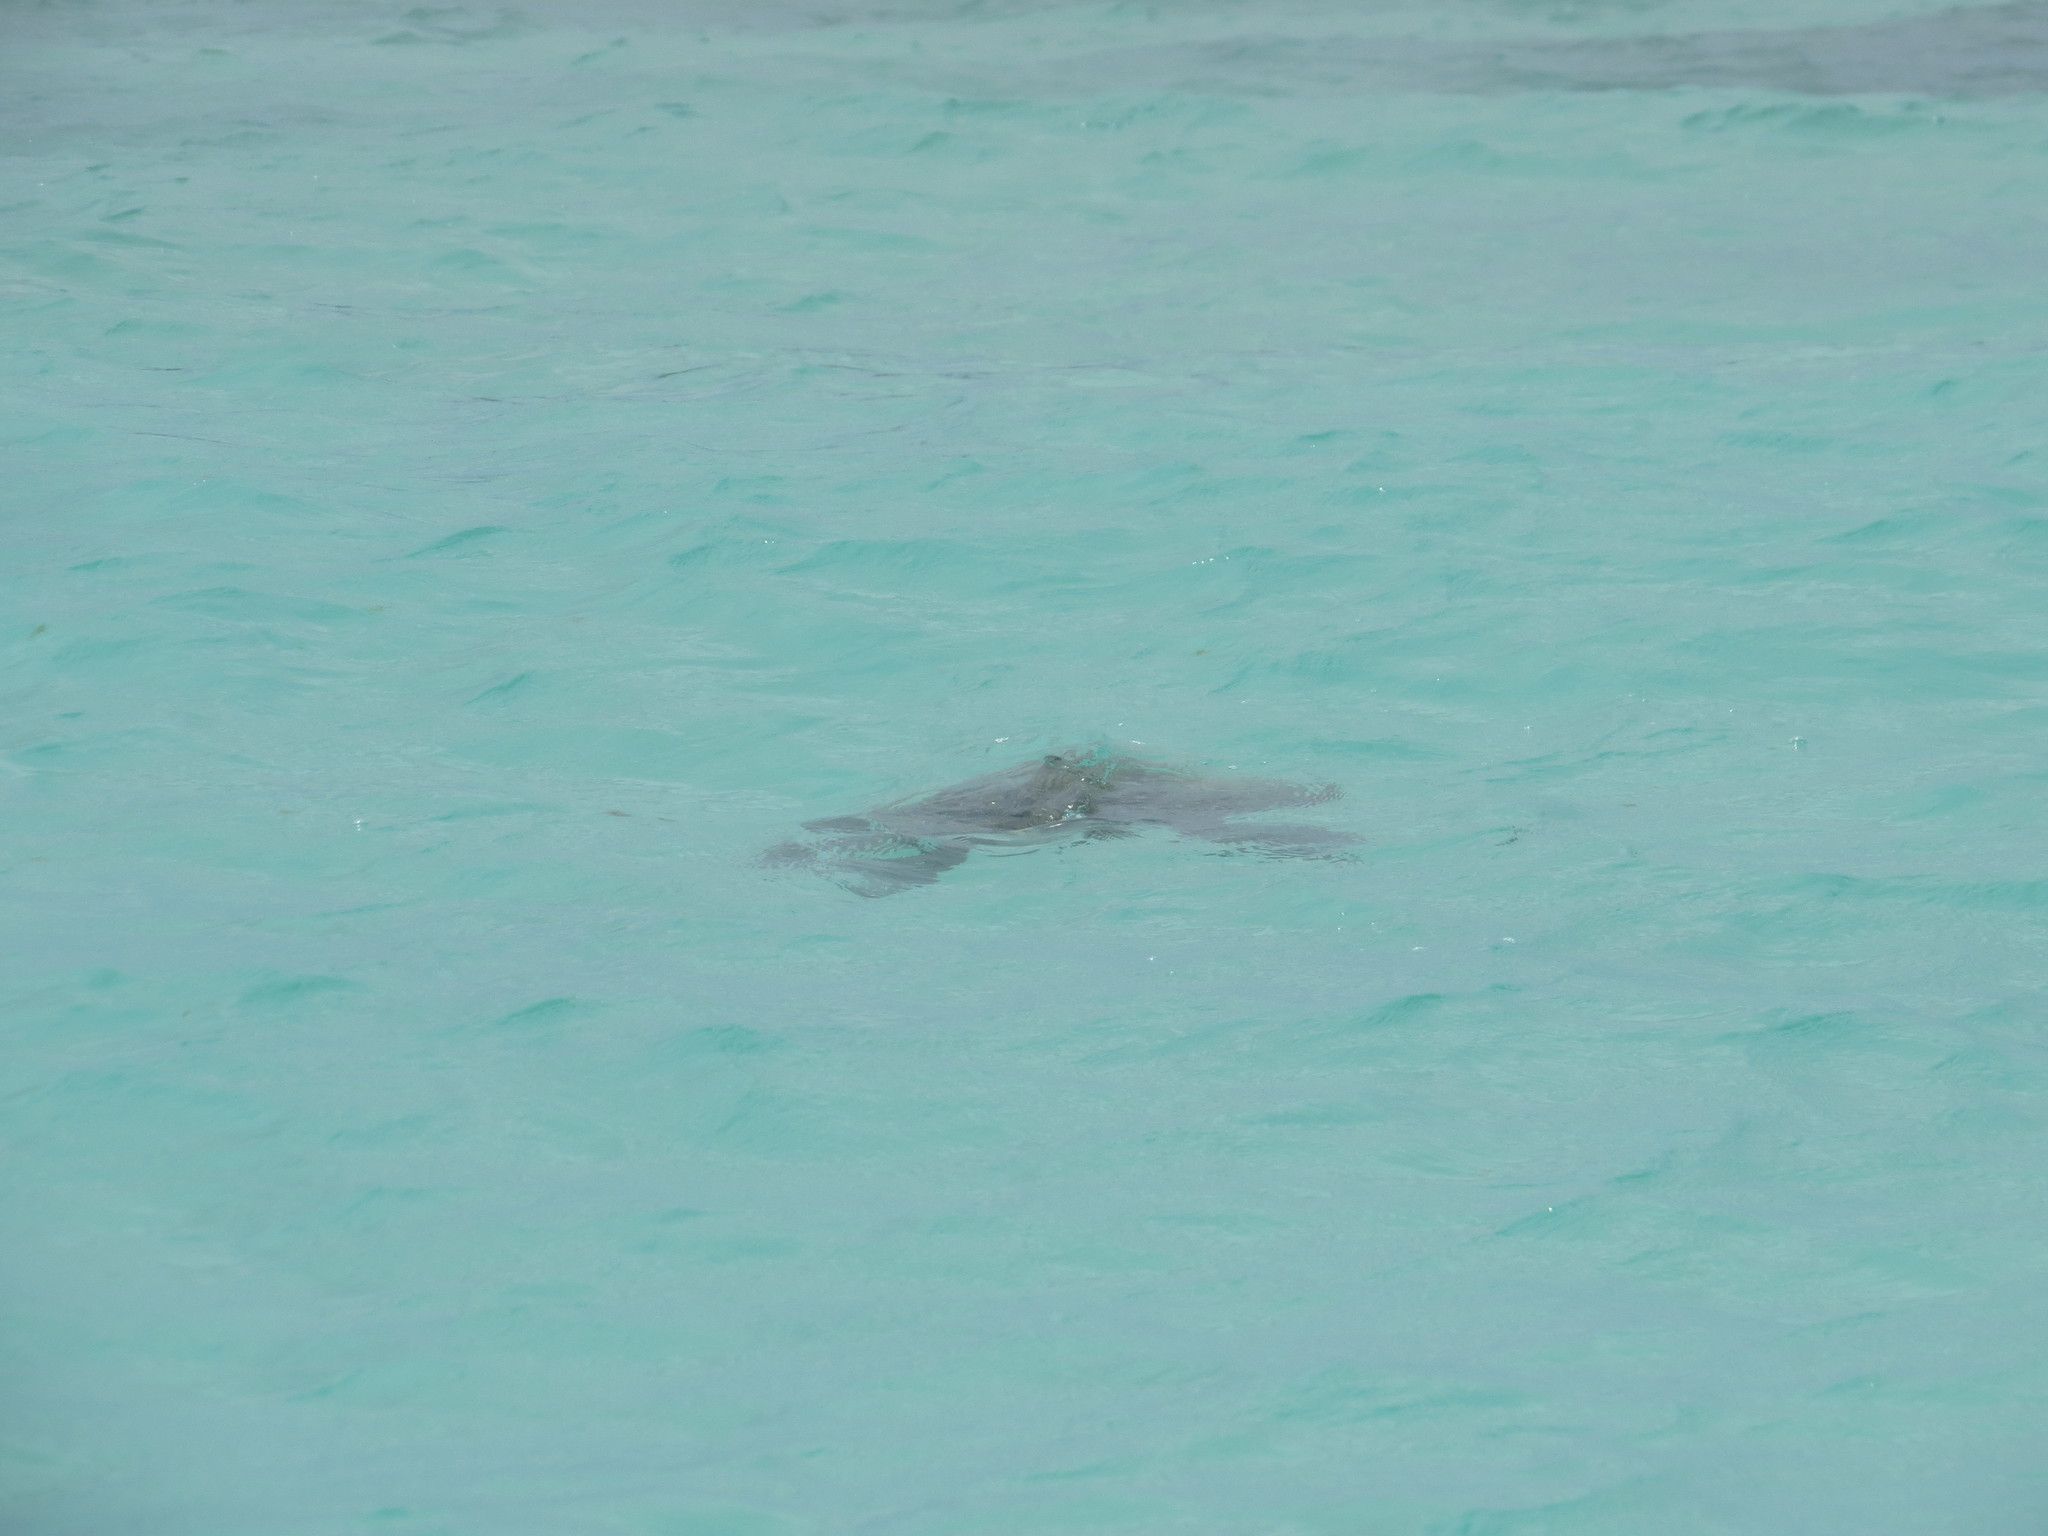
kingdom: Animalia
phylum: Chordata
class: Testudines
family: Cheloniidae
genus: Chelonia
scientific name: Chelonia mydas
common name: Green turtle
